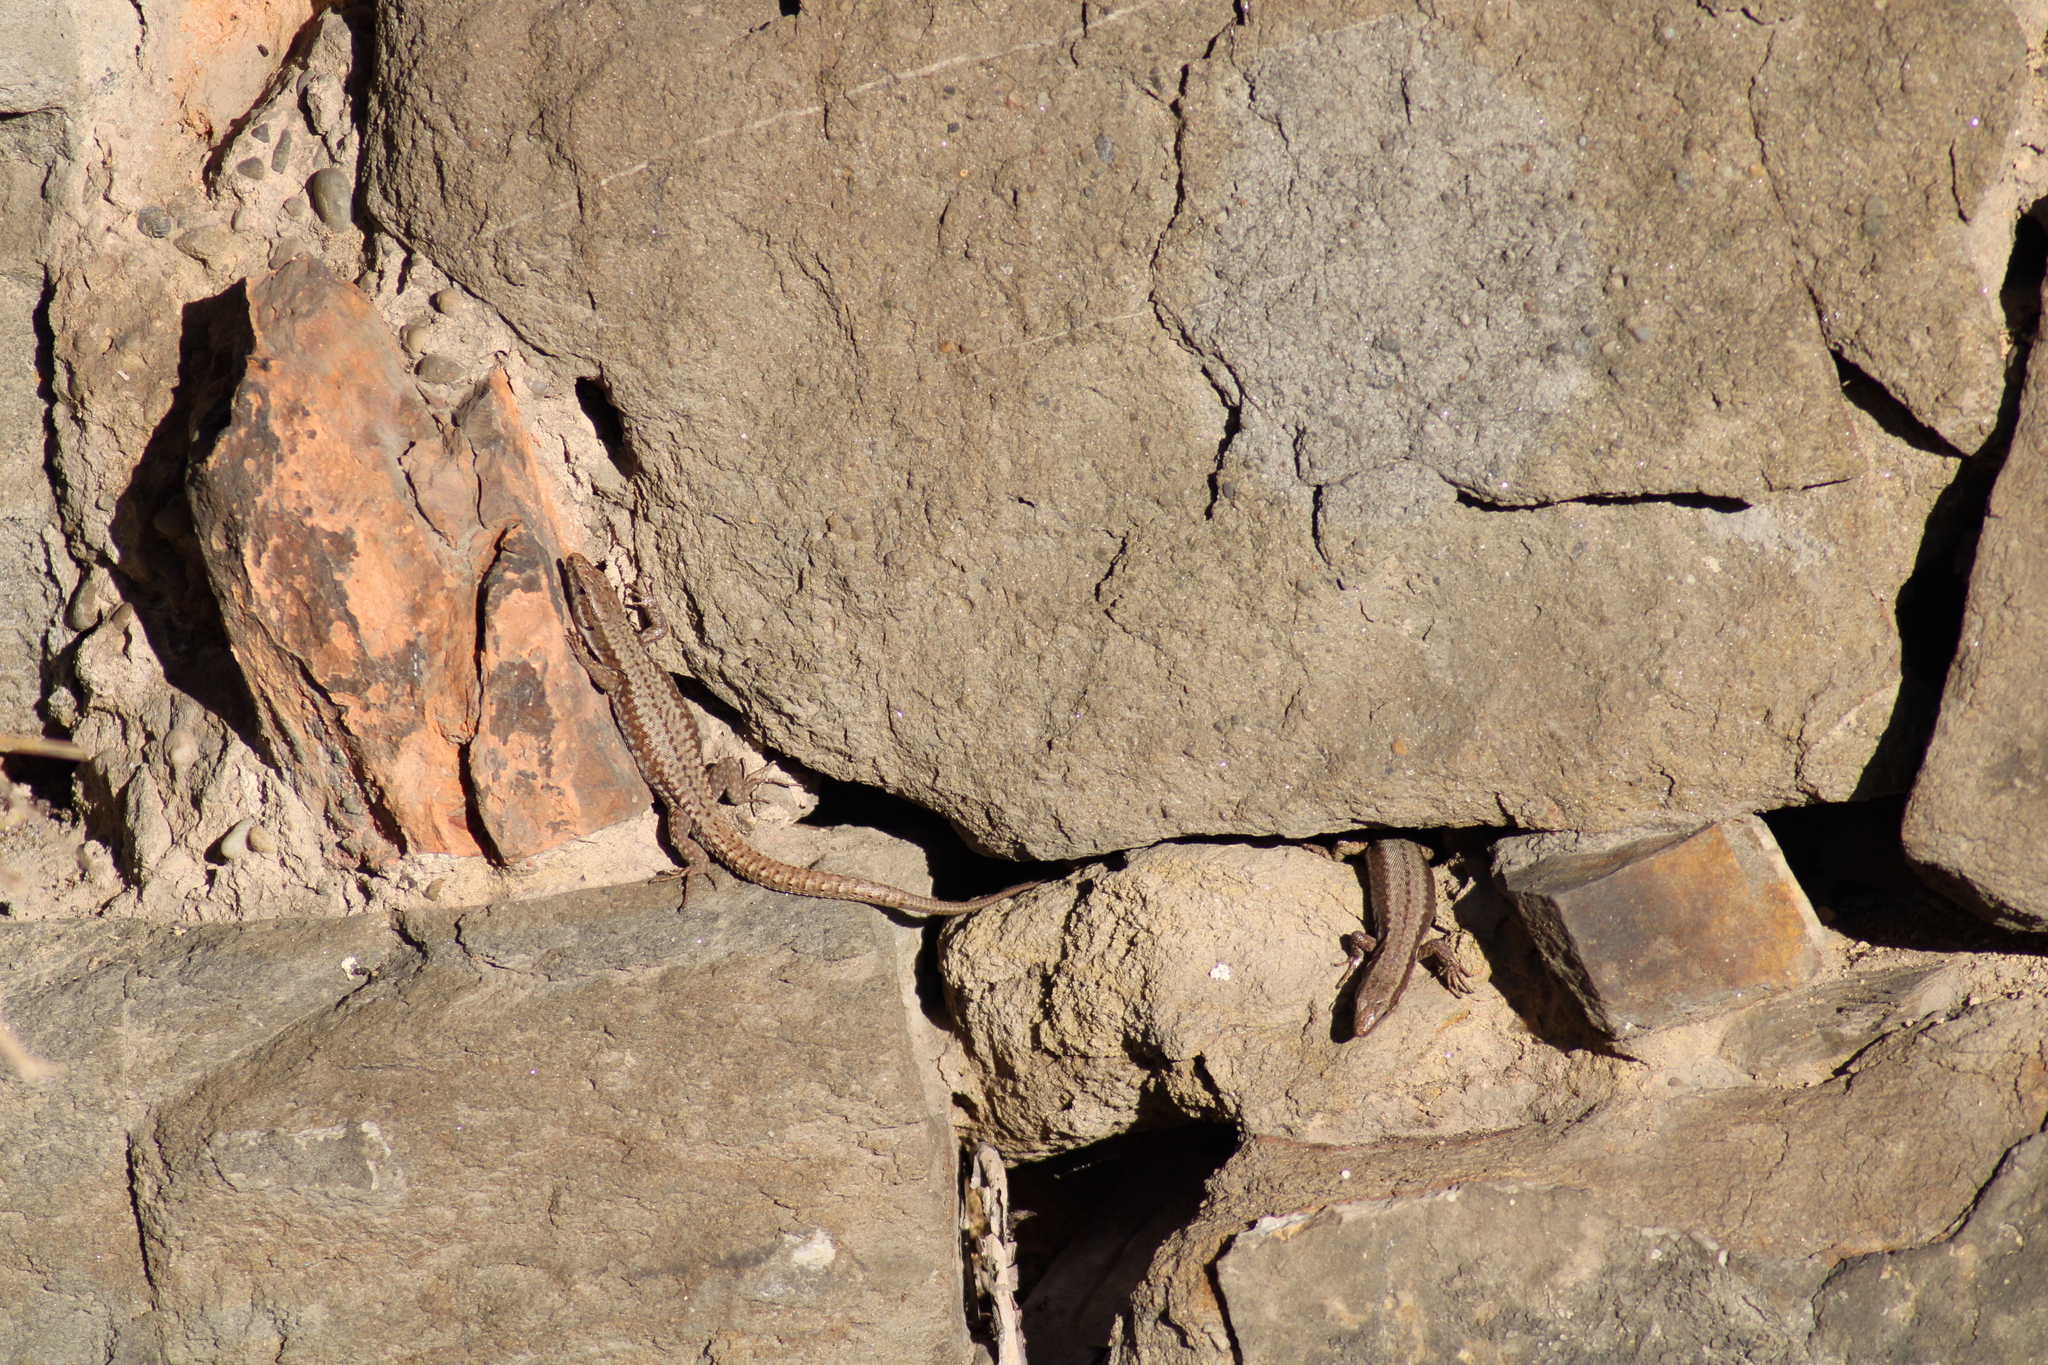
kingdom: Animalia
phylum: Chordata
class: Squamata
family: Lacertidae
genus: Podarcis
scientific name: Podarcis muralis
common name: Common wall lizard
